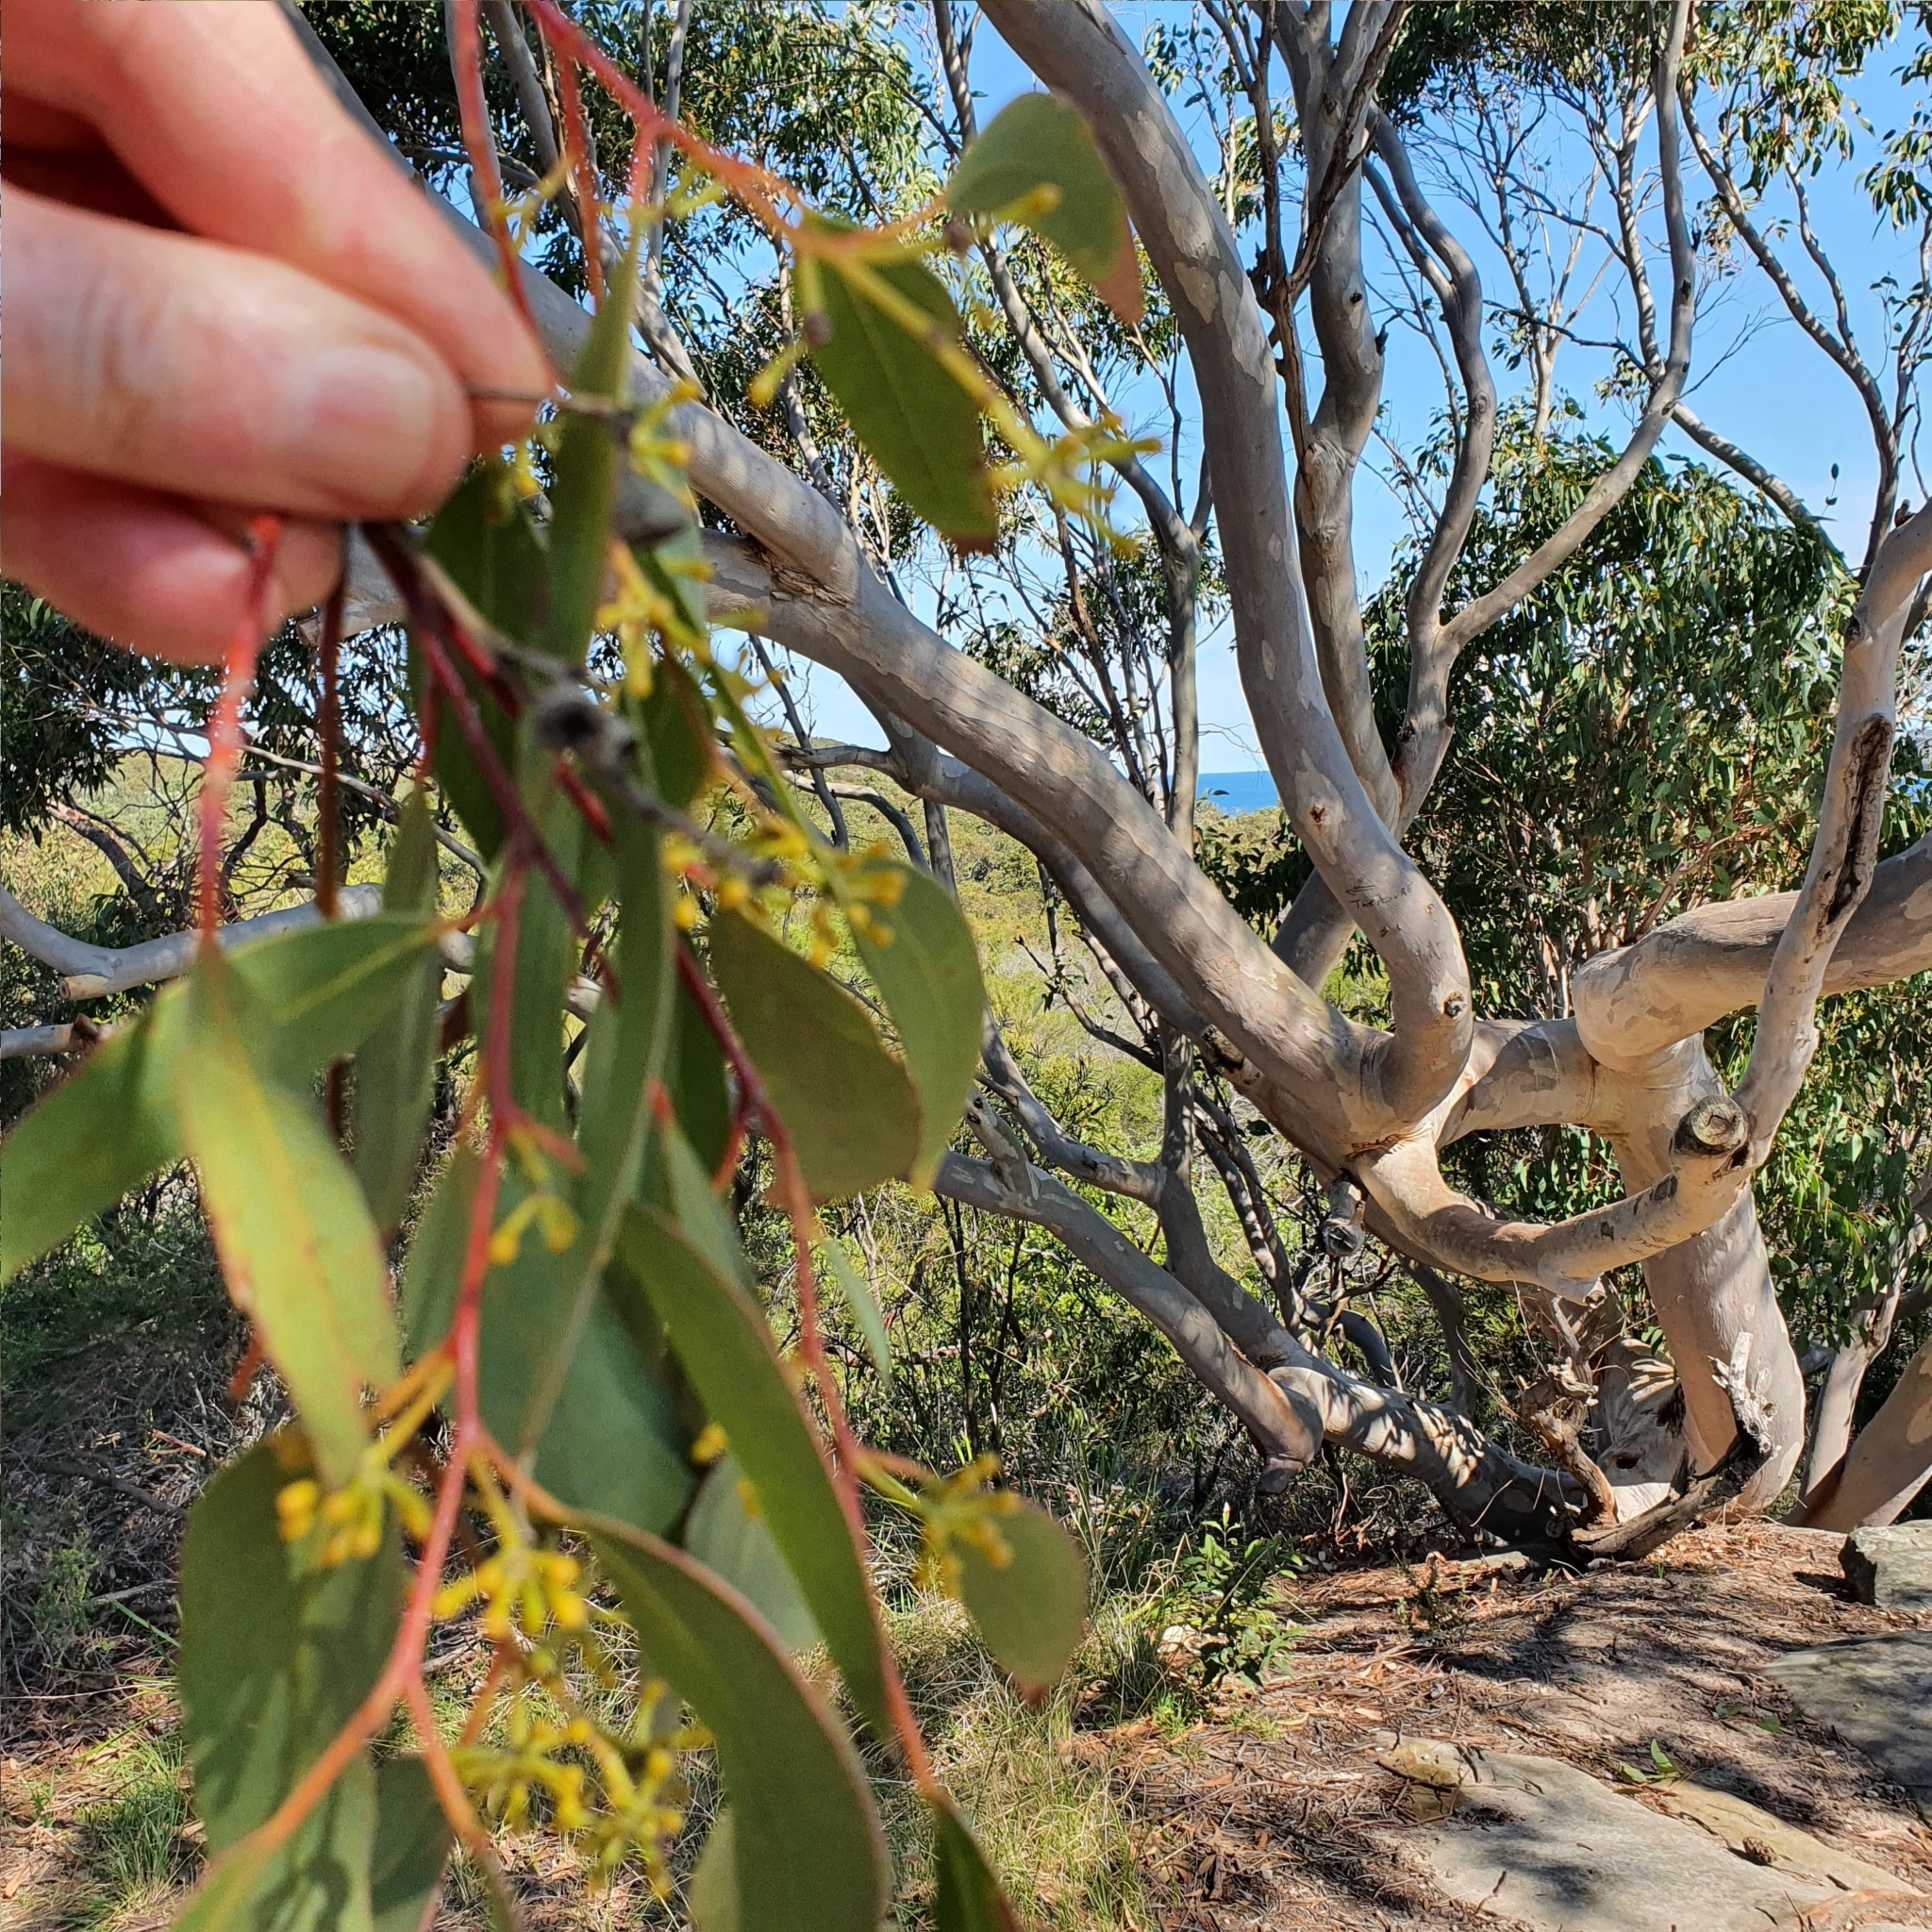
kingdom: Plantae
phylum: Tracheophyta
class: Magnoliopsida
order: Myrtales
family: Myrtaceae
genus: Eucalyptus
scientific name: Eucalyptus punctata
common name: Gray gum
